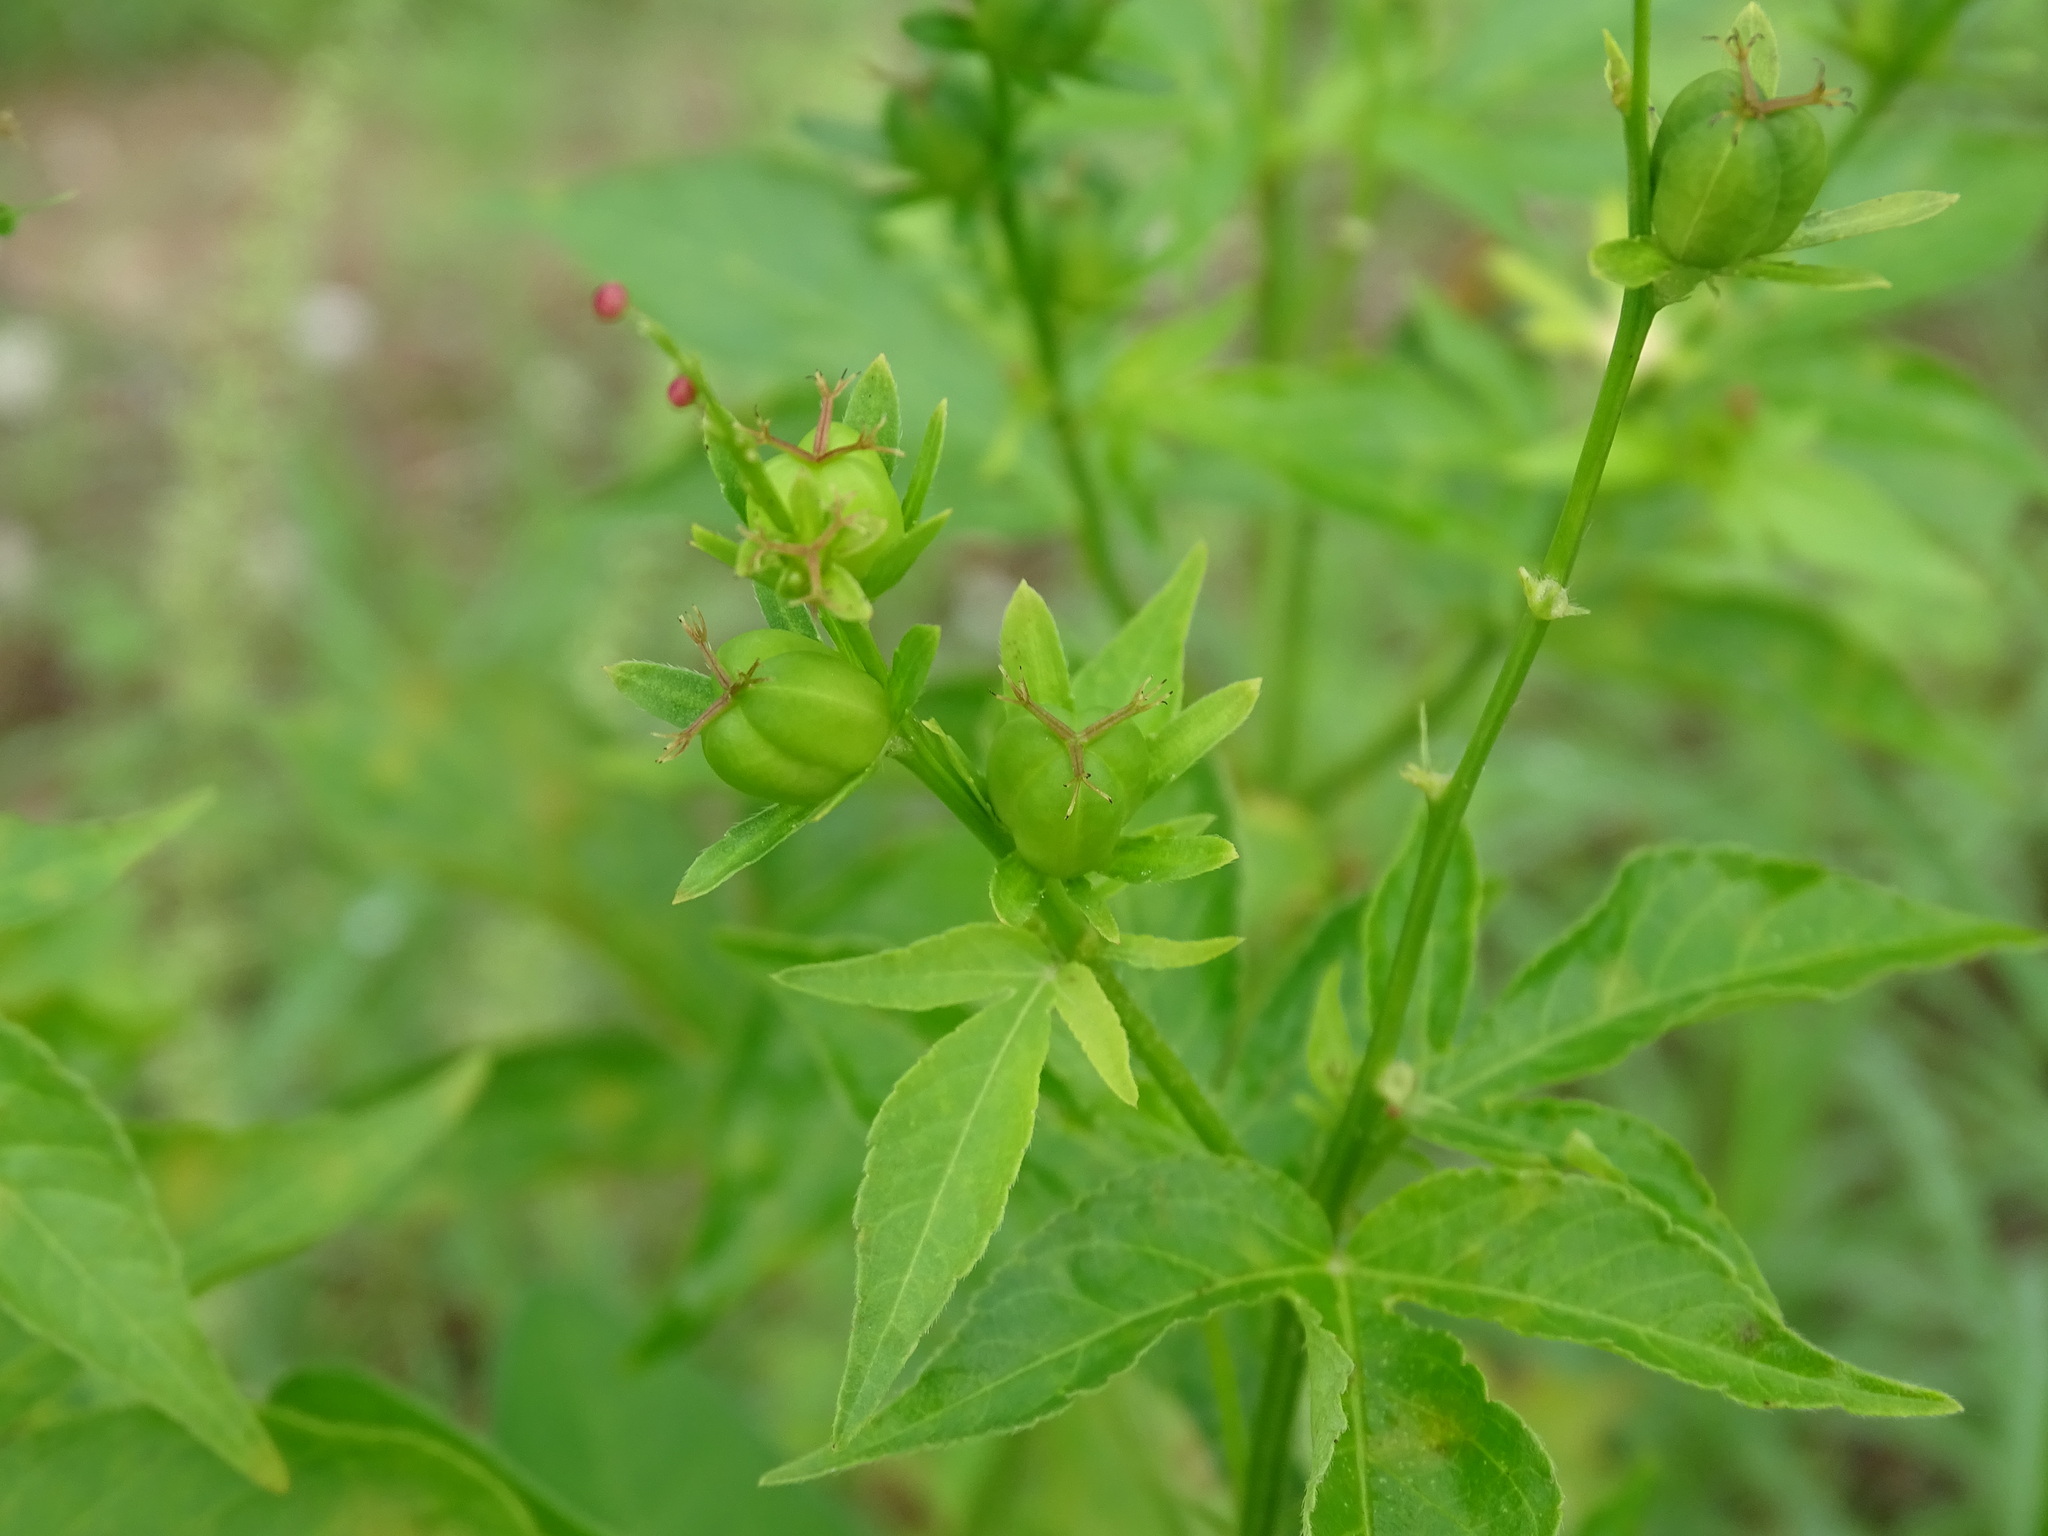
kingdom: Plantae
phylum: Tracheophyta
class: Magnoliopsida
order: Malpighiales
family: Euphorbiaceae
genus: Astraea
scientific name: Astraea lobata
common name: Lobed croton
